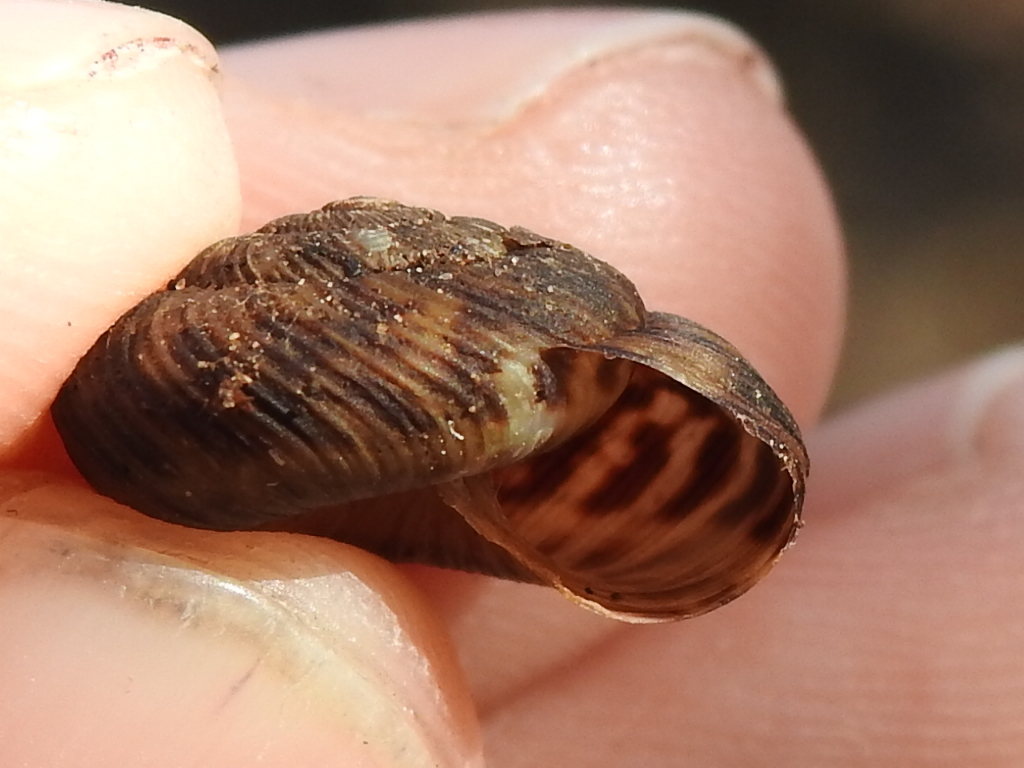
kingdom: Animalia
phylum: Mollusca
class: Gastropoda
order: Stylommatophora
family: Discidae
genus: Anguispira
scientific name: Anguispira strongylodes
